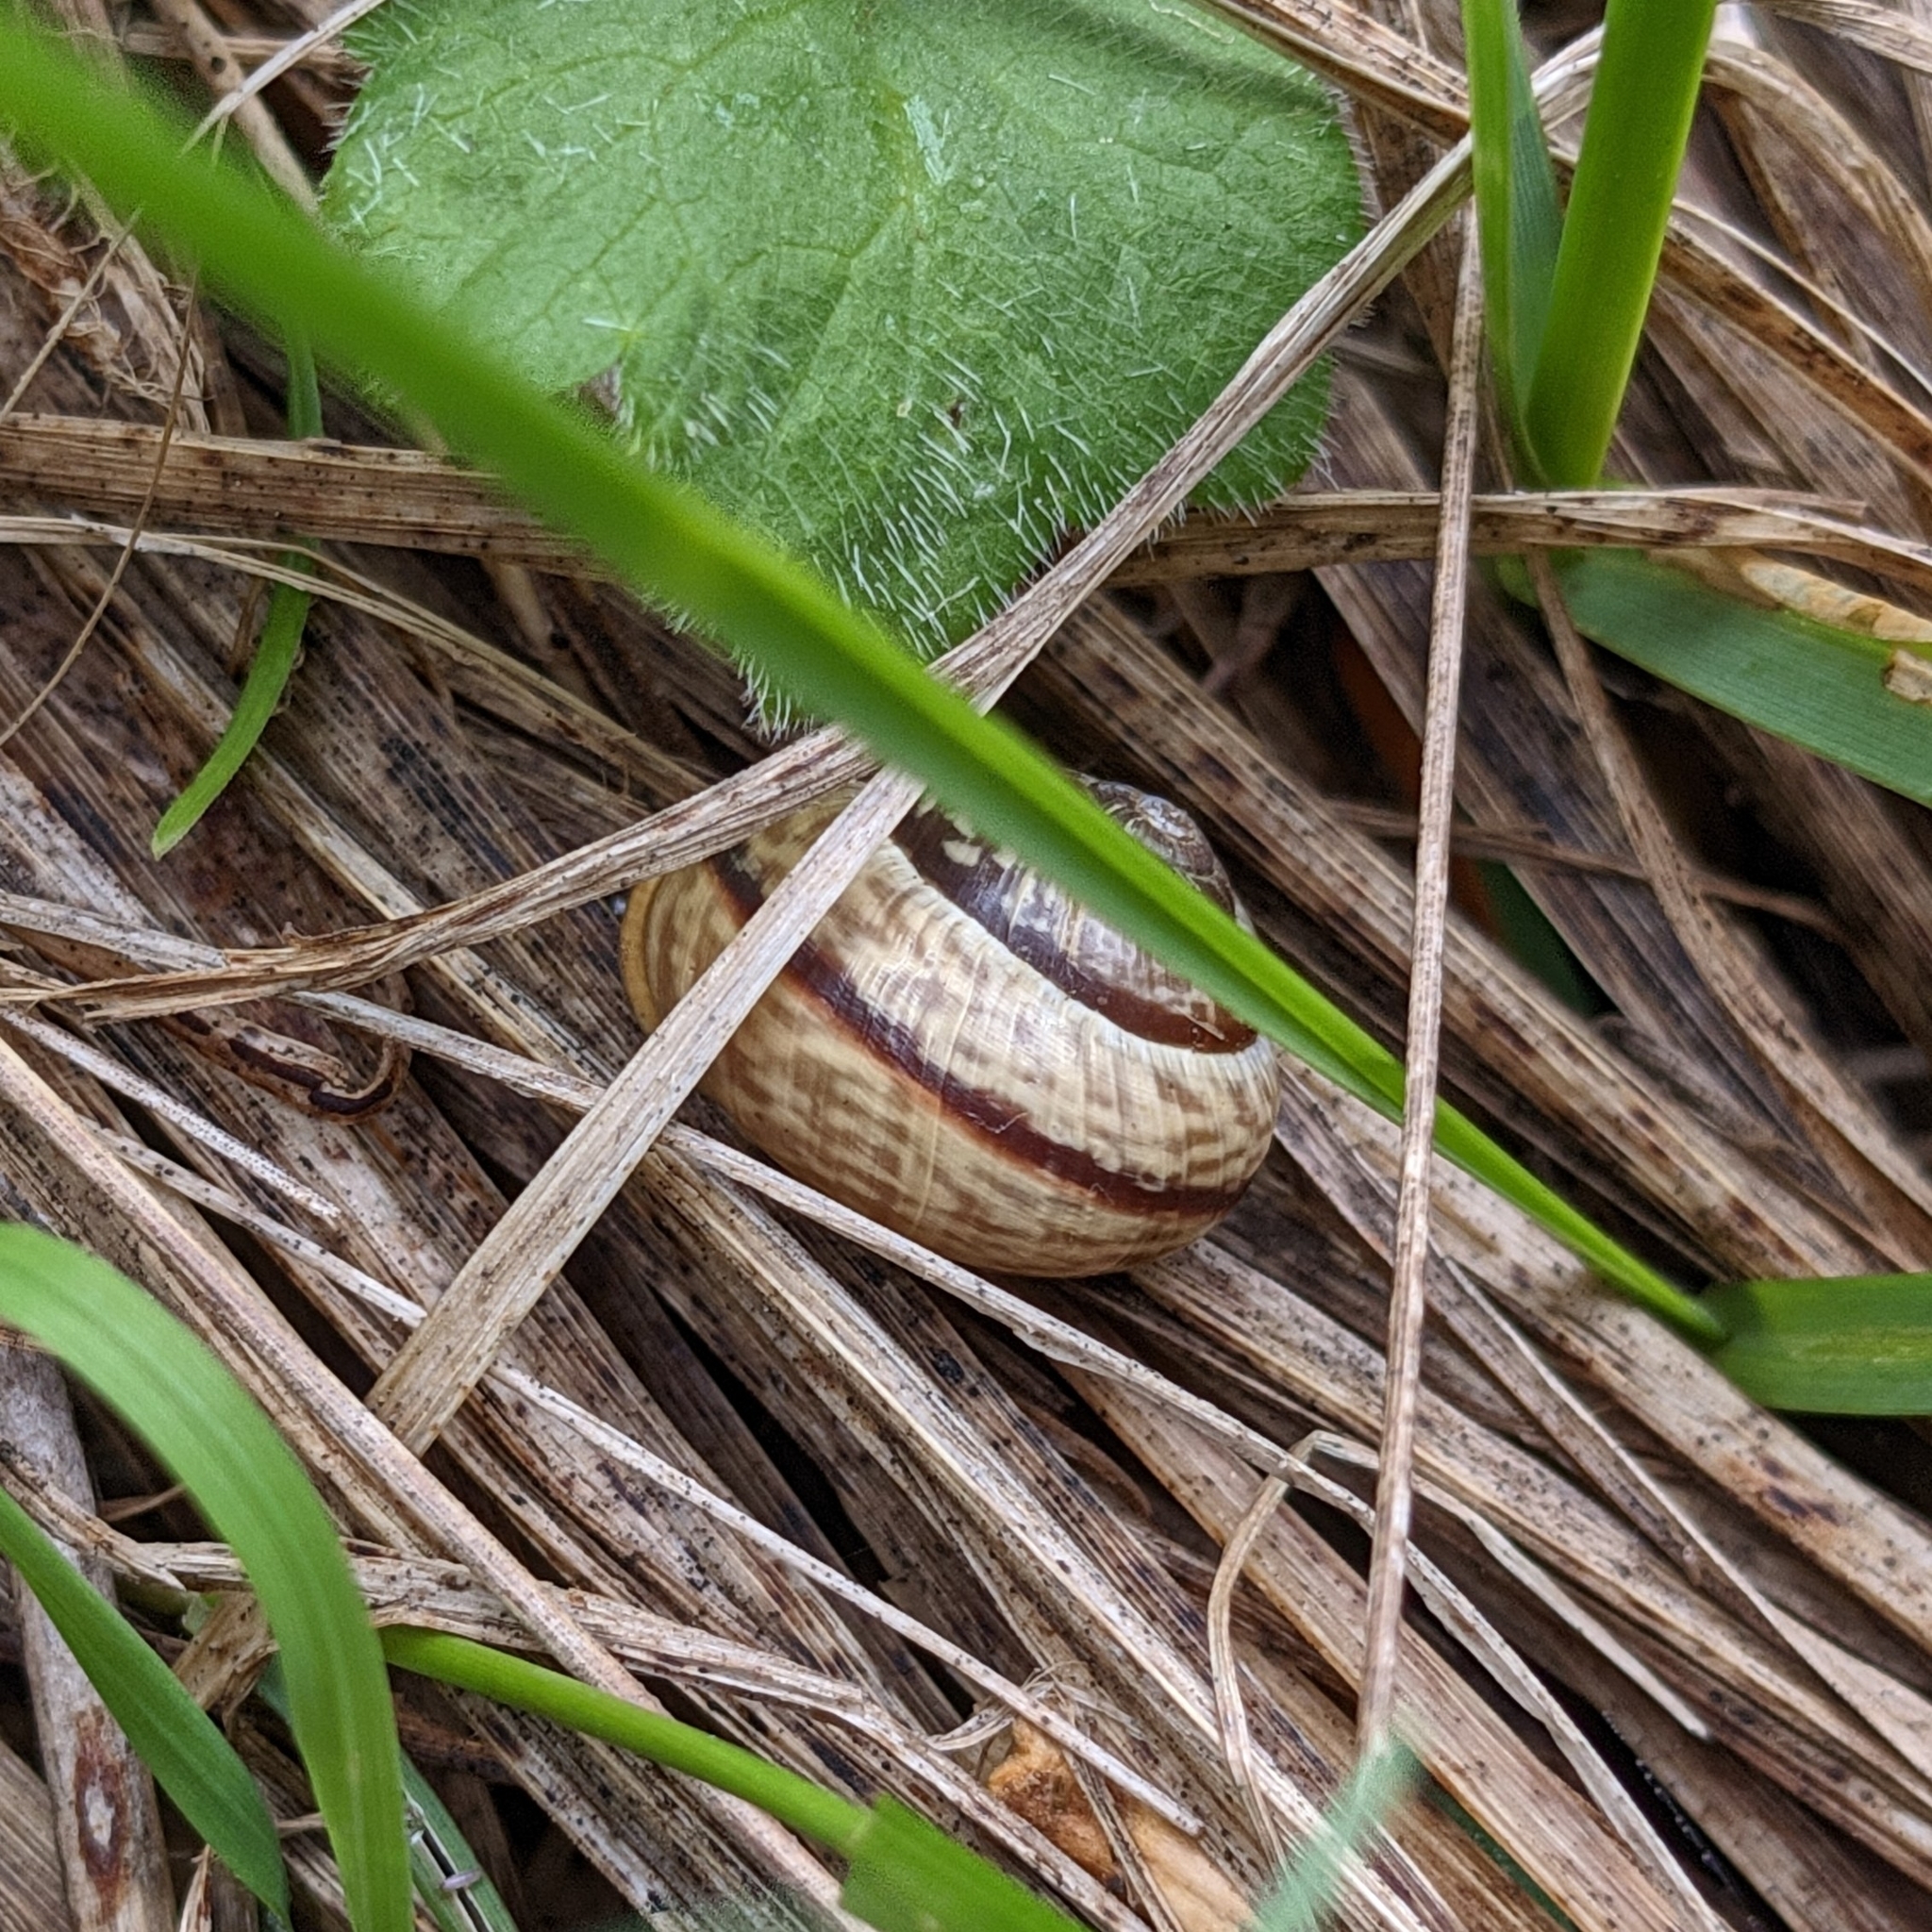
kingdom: Animalia
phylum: Mollusca
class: Gastropoda
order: Stylommatophora
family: Helicidae
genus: Arianta
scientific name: Arianta arbustorum
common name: Copse snail
